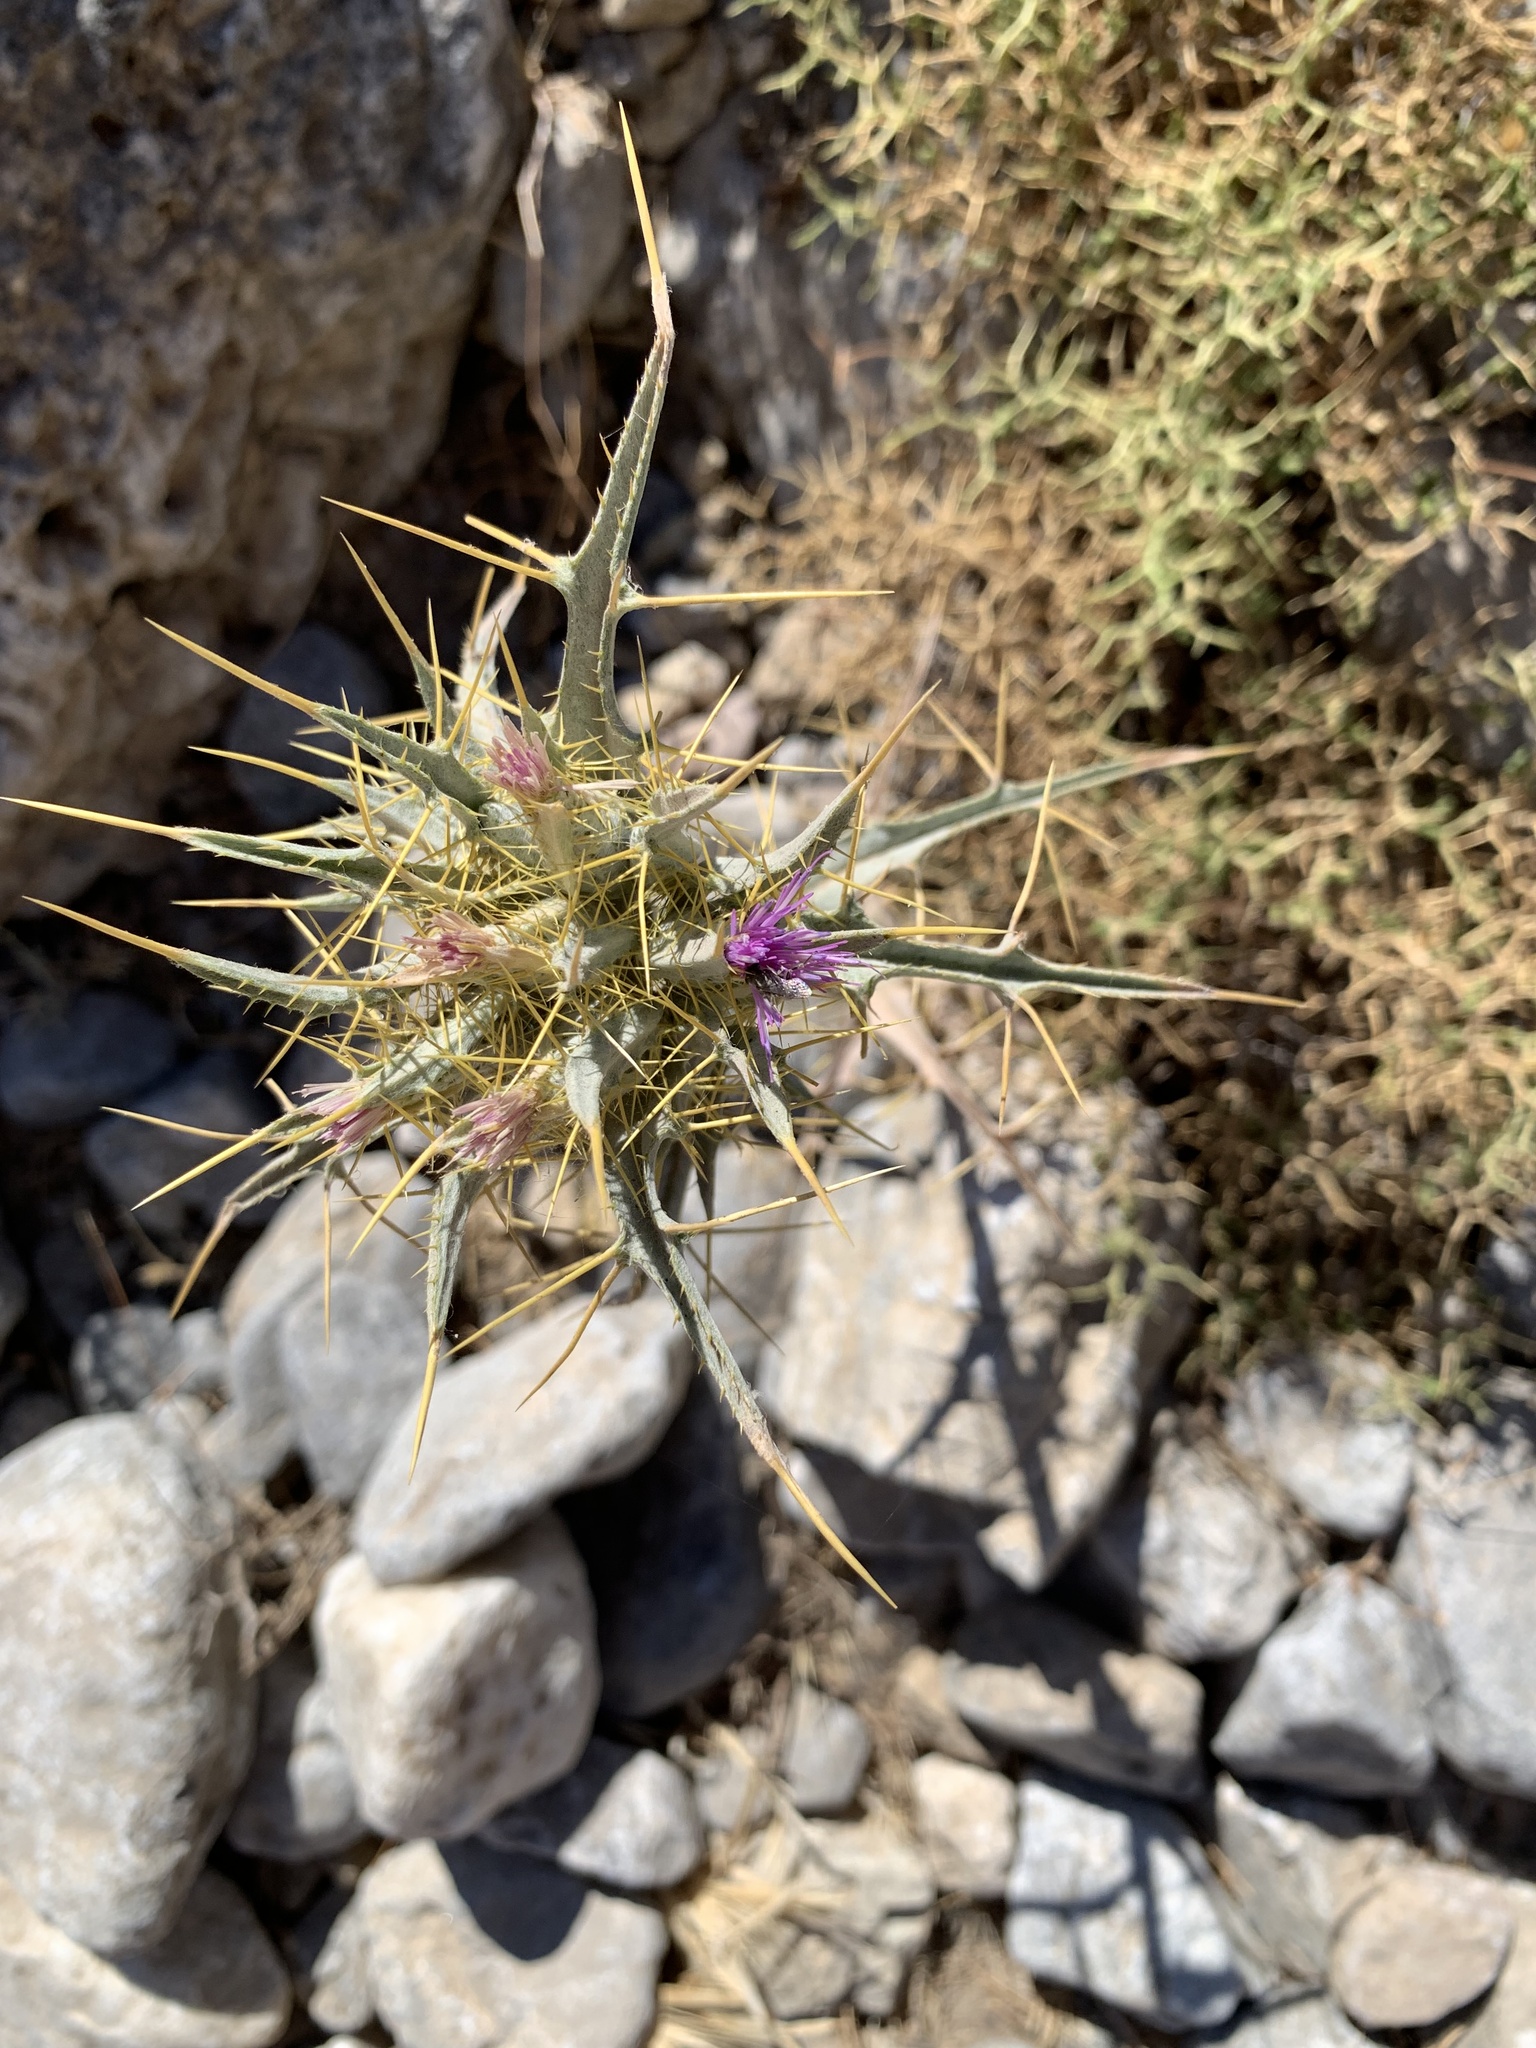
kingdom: Plantae
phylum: Tracheophyta
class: Magnoliopsida
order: Asterales
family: Asteraceae
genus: Picnomon
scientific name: Picnomon acarna
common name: Soldier thistle
